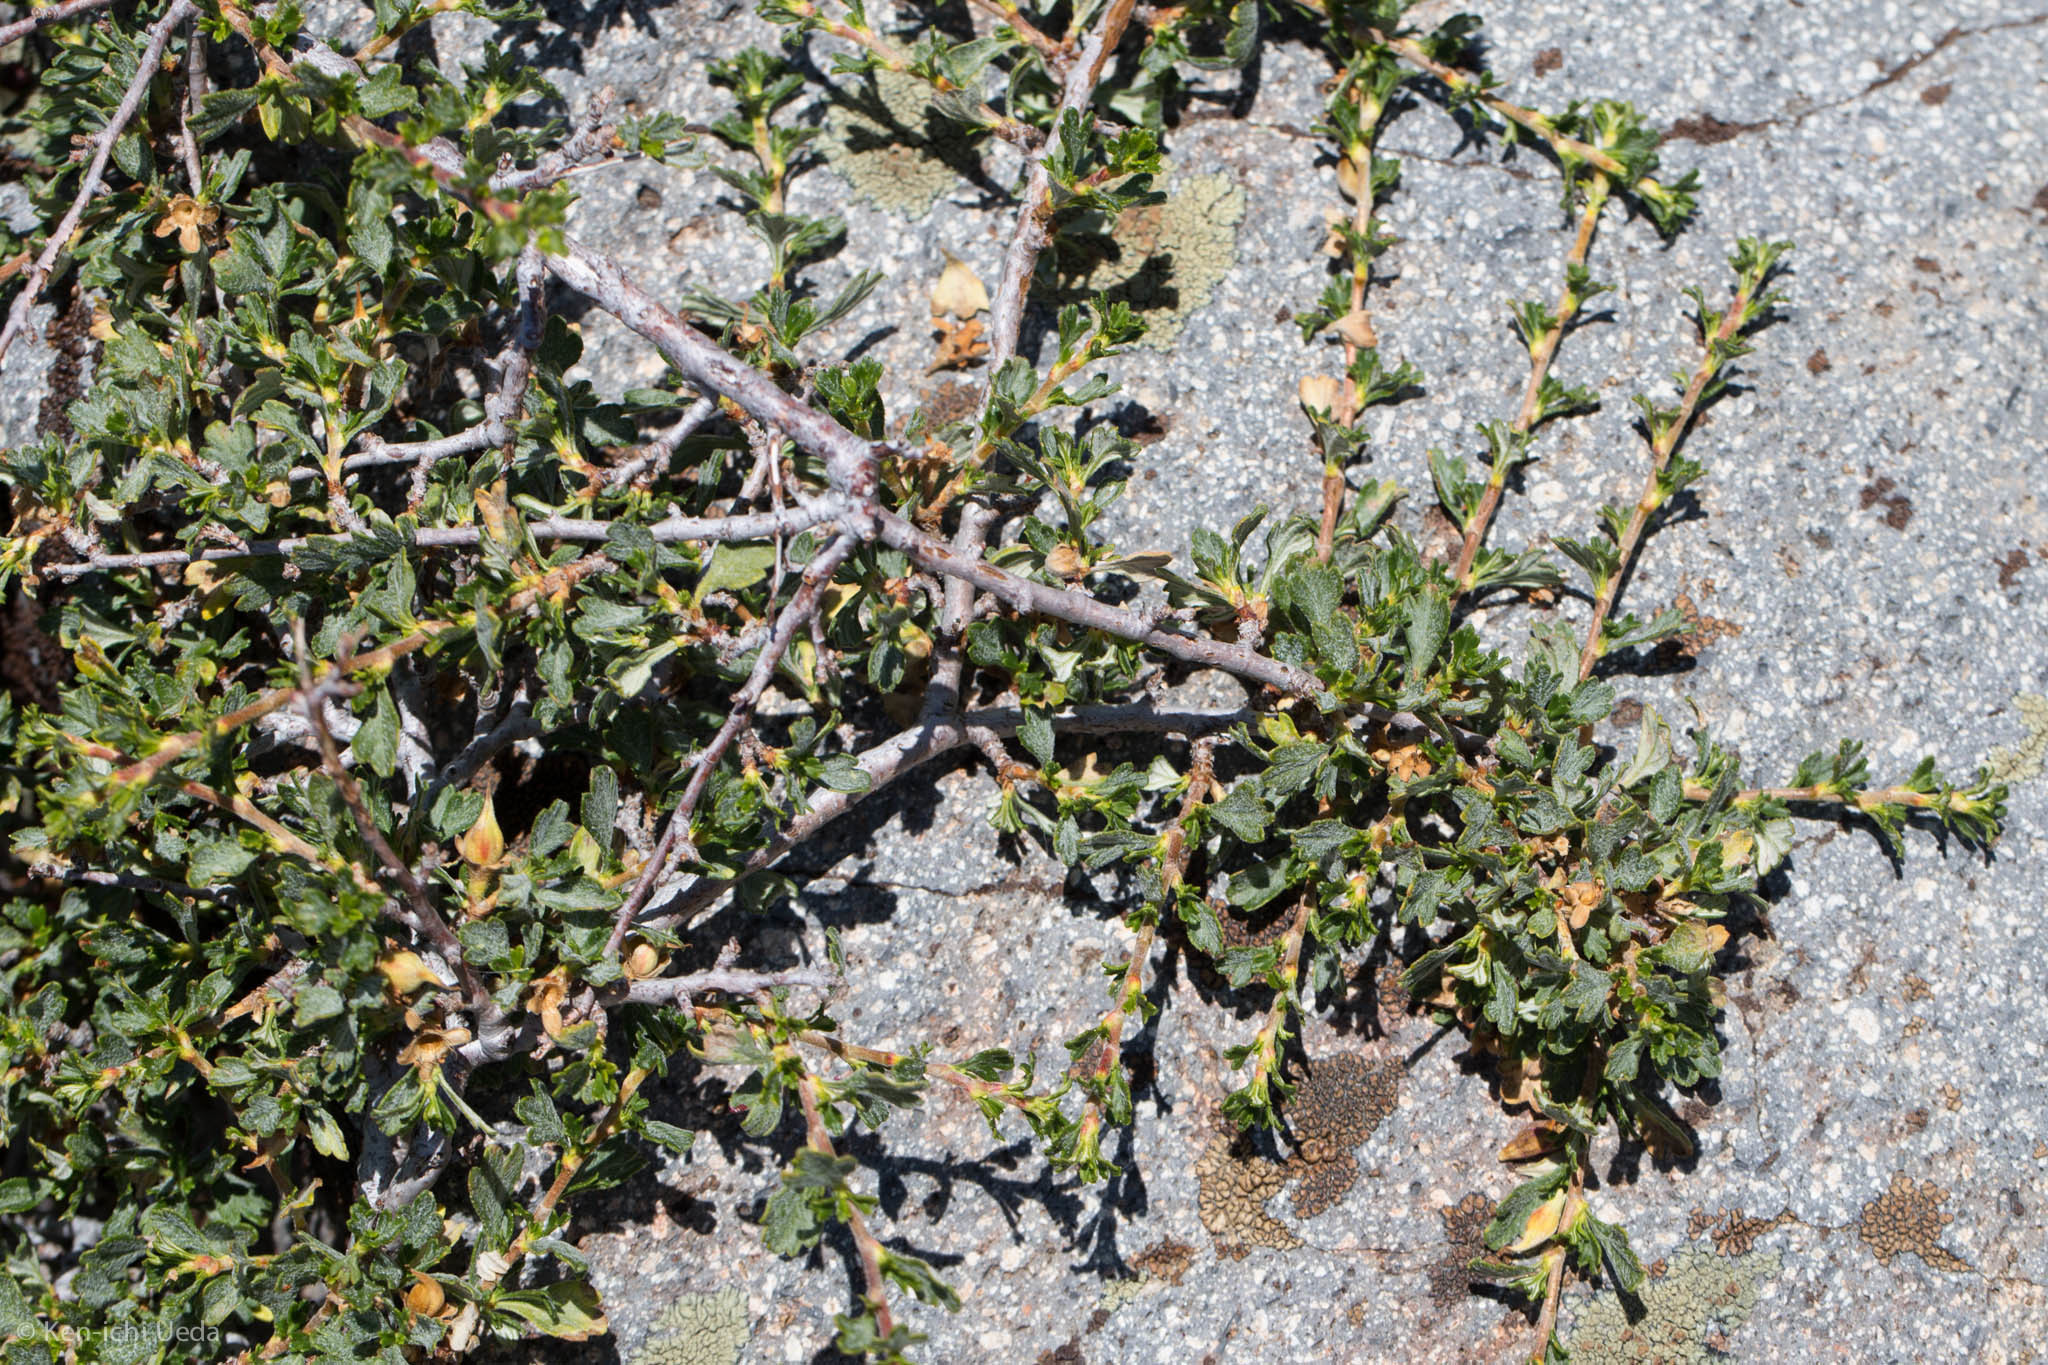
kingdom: Plantae
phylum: Tracheophyta
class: Magnoliopsida
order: Rosales
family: Rosaceae
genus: Purshia
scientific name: Purshia tridentata
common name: Antelope bitterbrush
